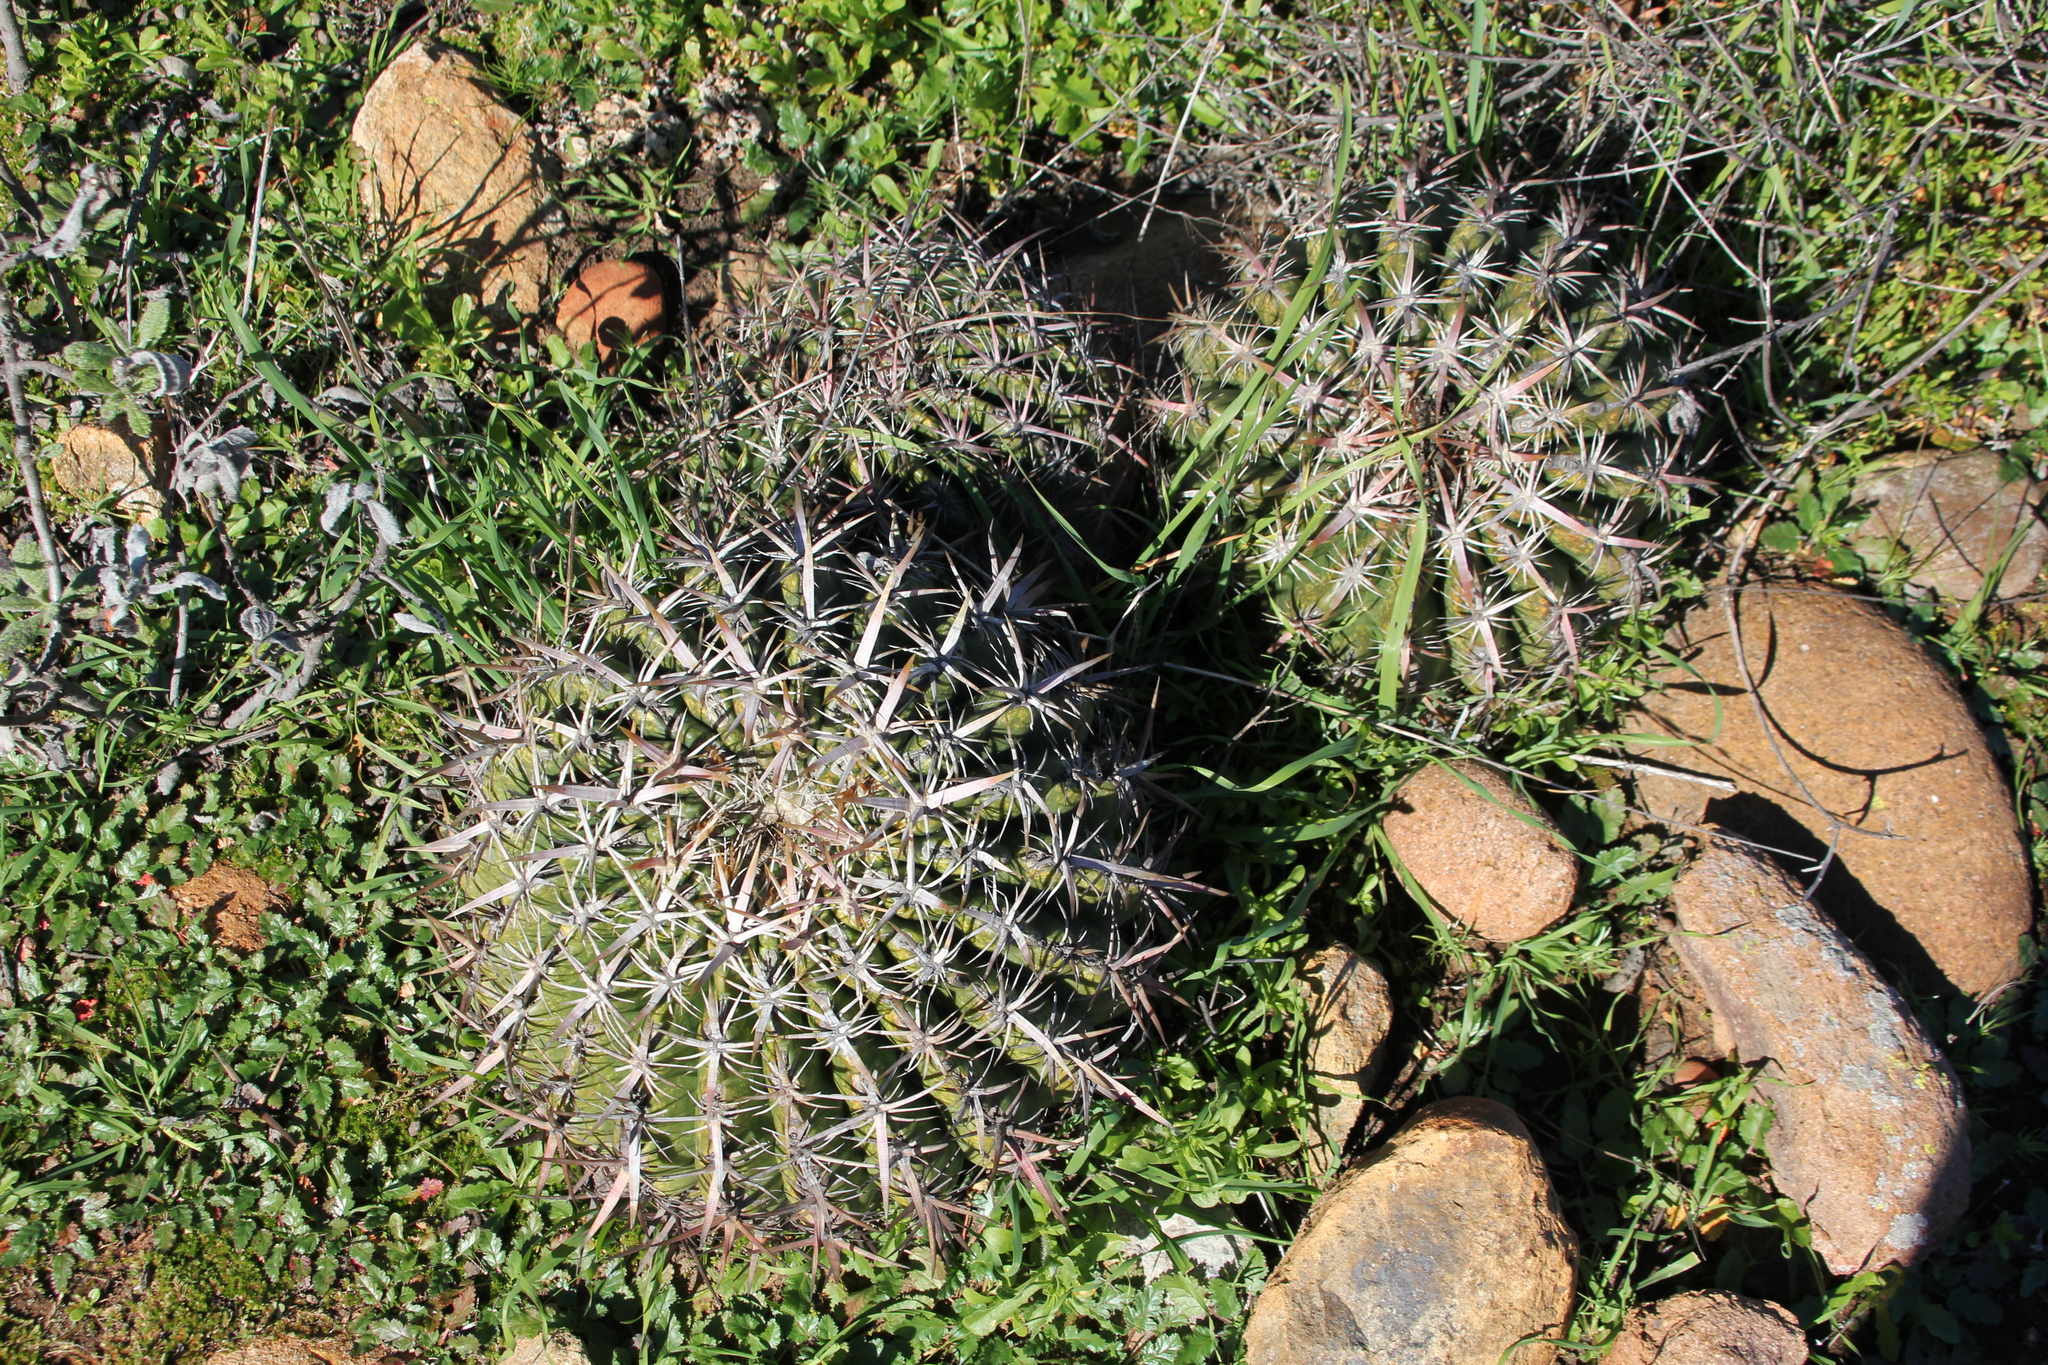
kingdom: Plantae
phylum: Tracheophyta
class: Magnoliopsida
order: Caryophyllales
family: Cactaceae
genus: Ferocactus
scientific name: Ferocactus viridescens
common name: San diego barrel cactus
